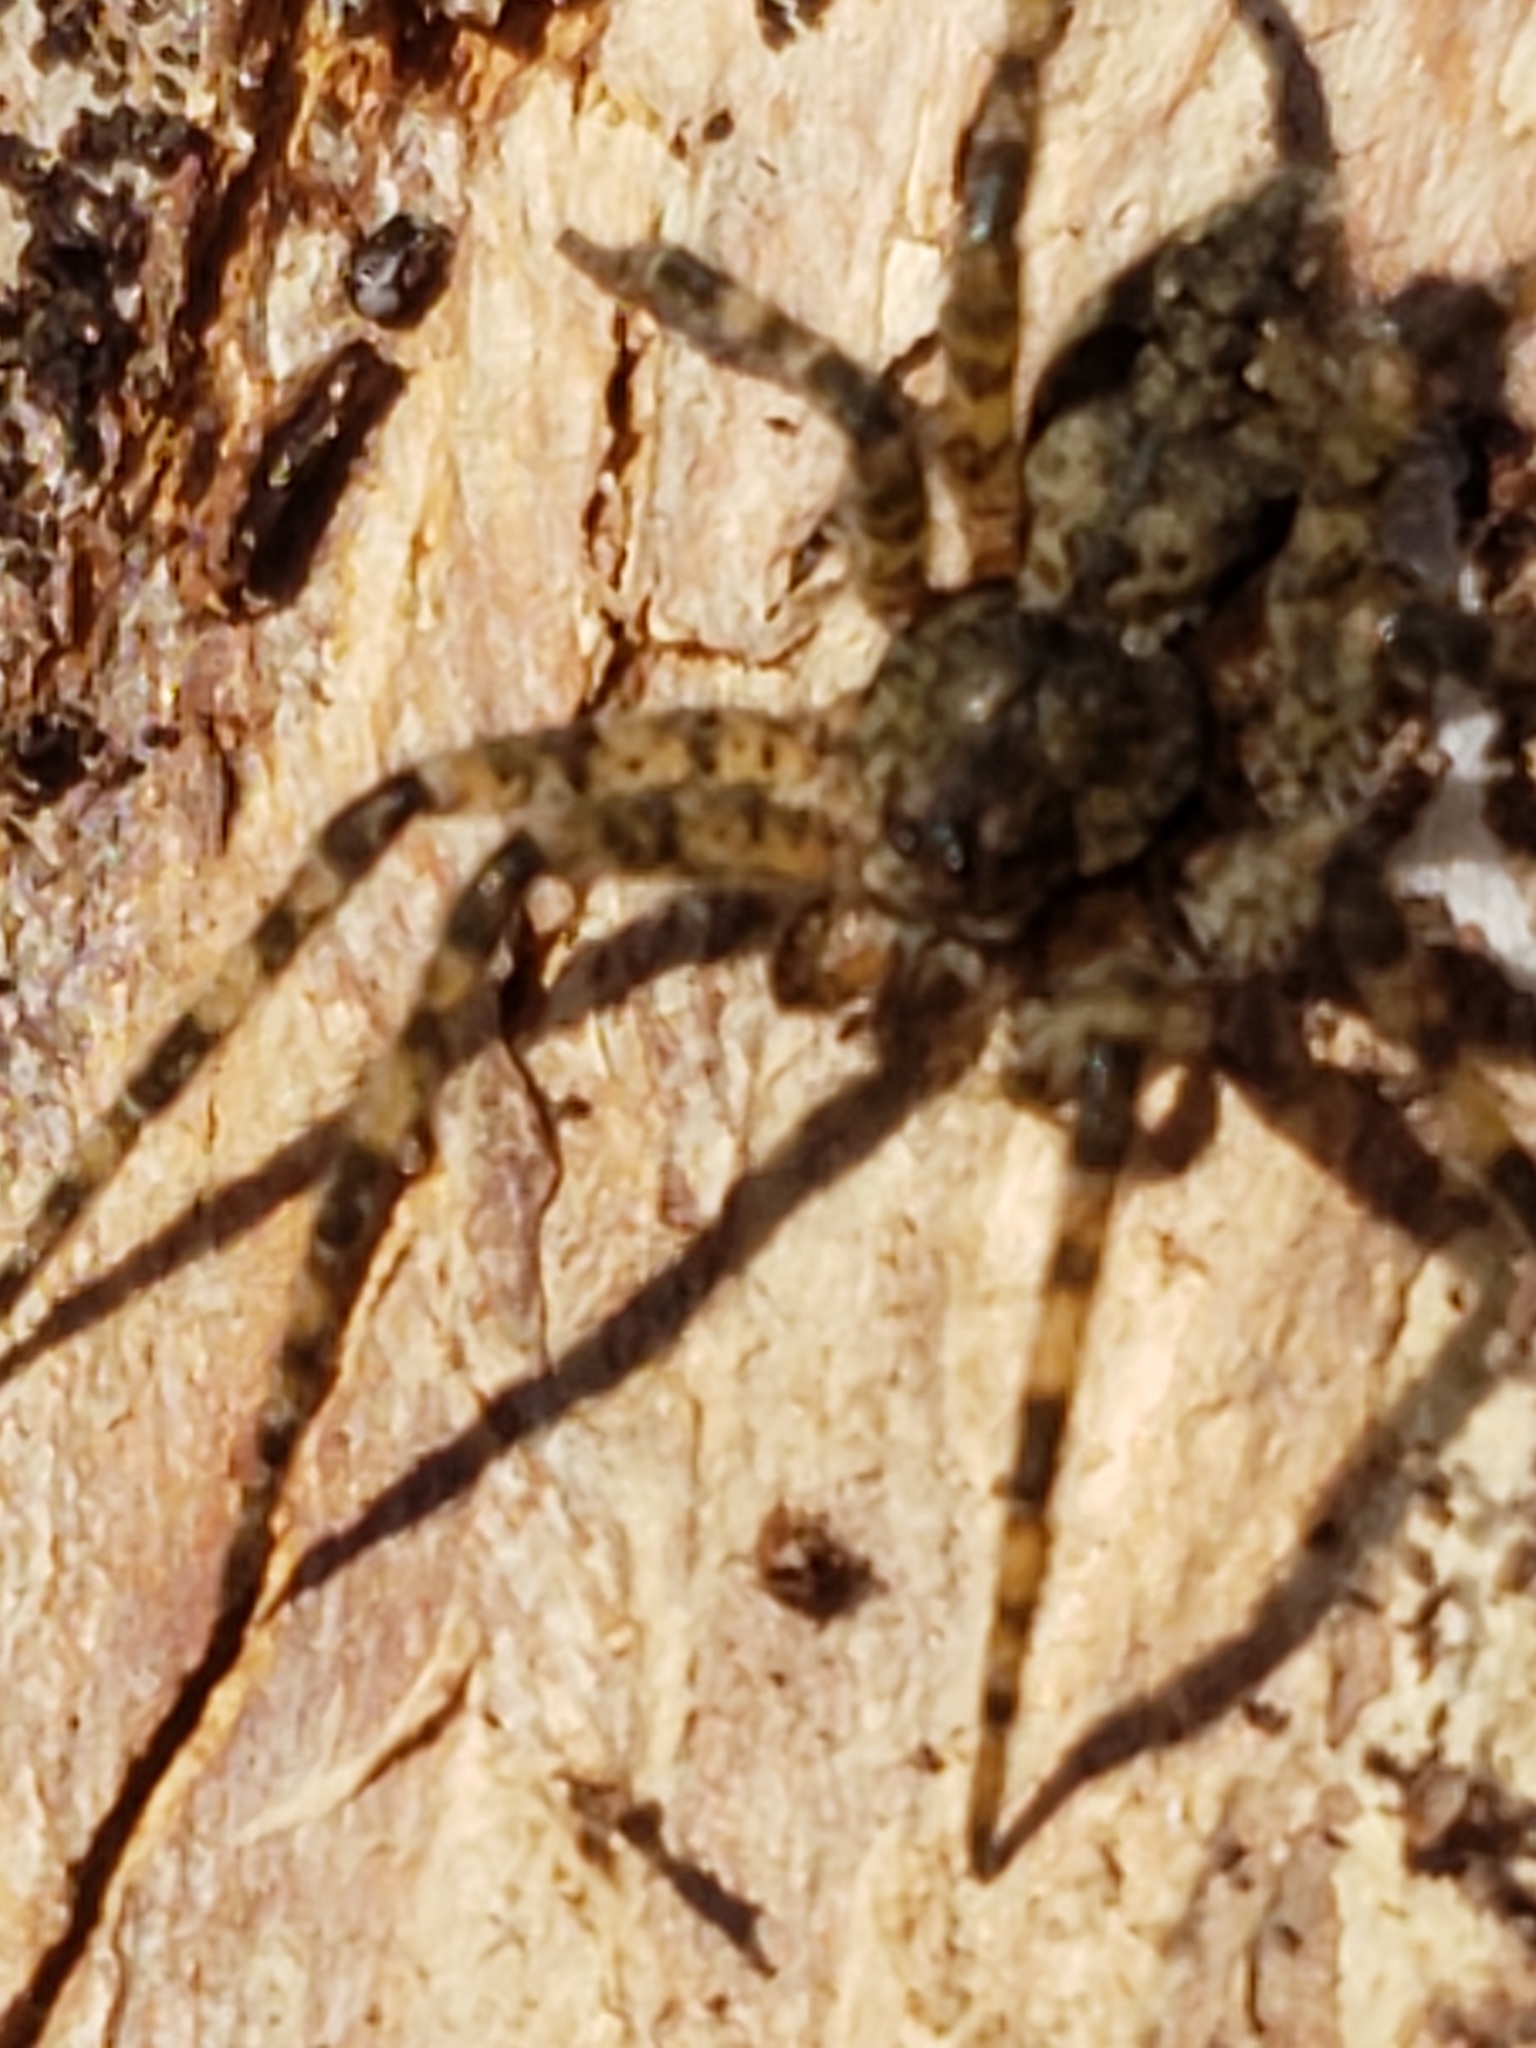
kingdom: Animalia
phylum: Arthropoda
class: Arachnida
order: Araneae
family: Pisauridae
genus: Dolomedes
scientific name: Dolomedes albineus
